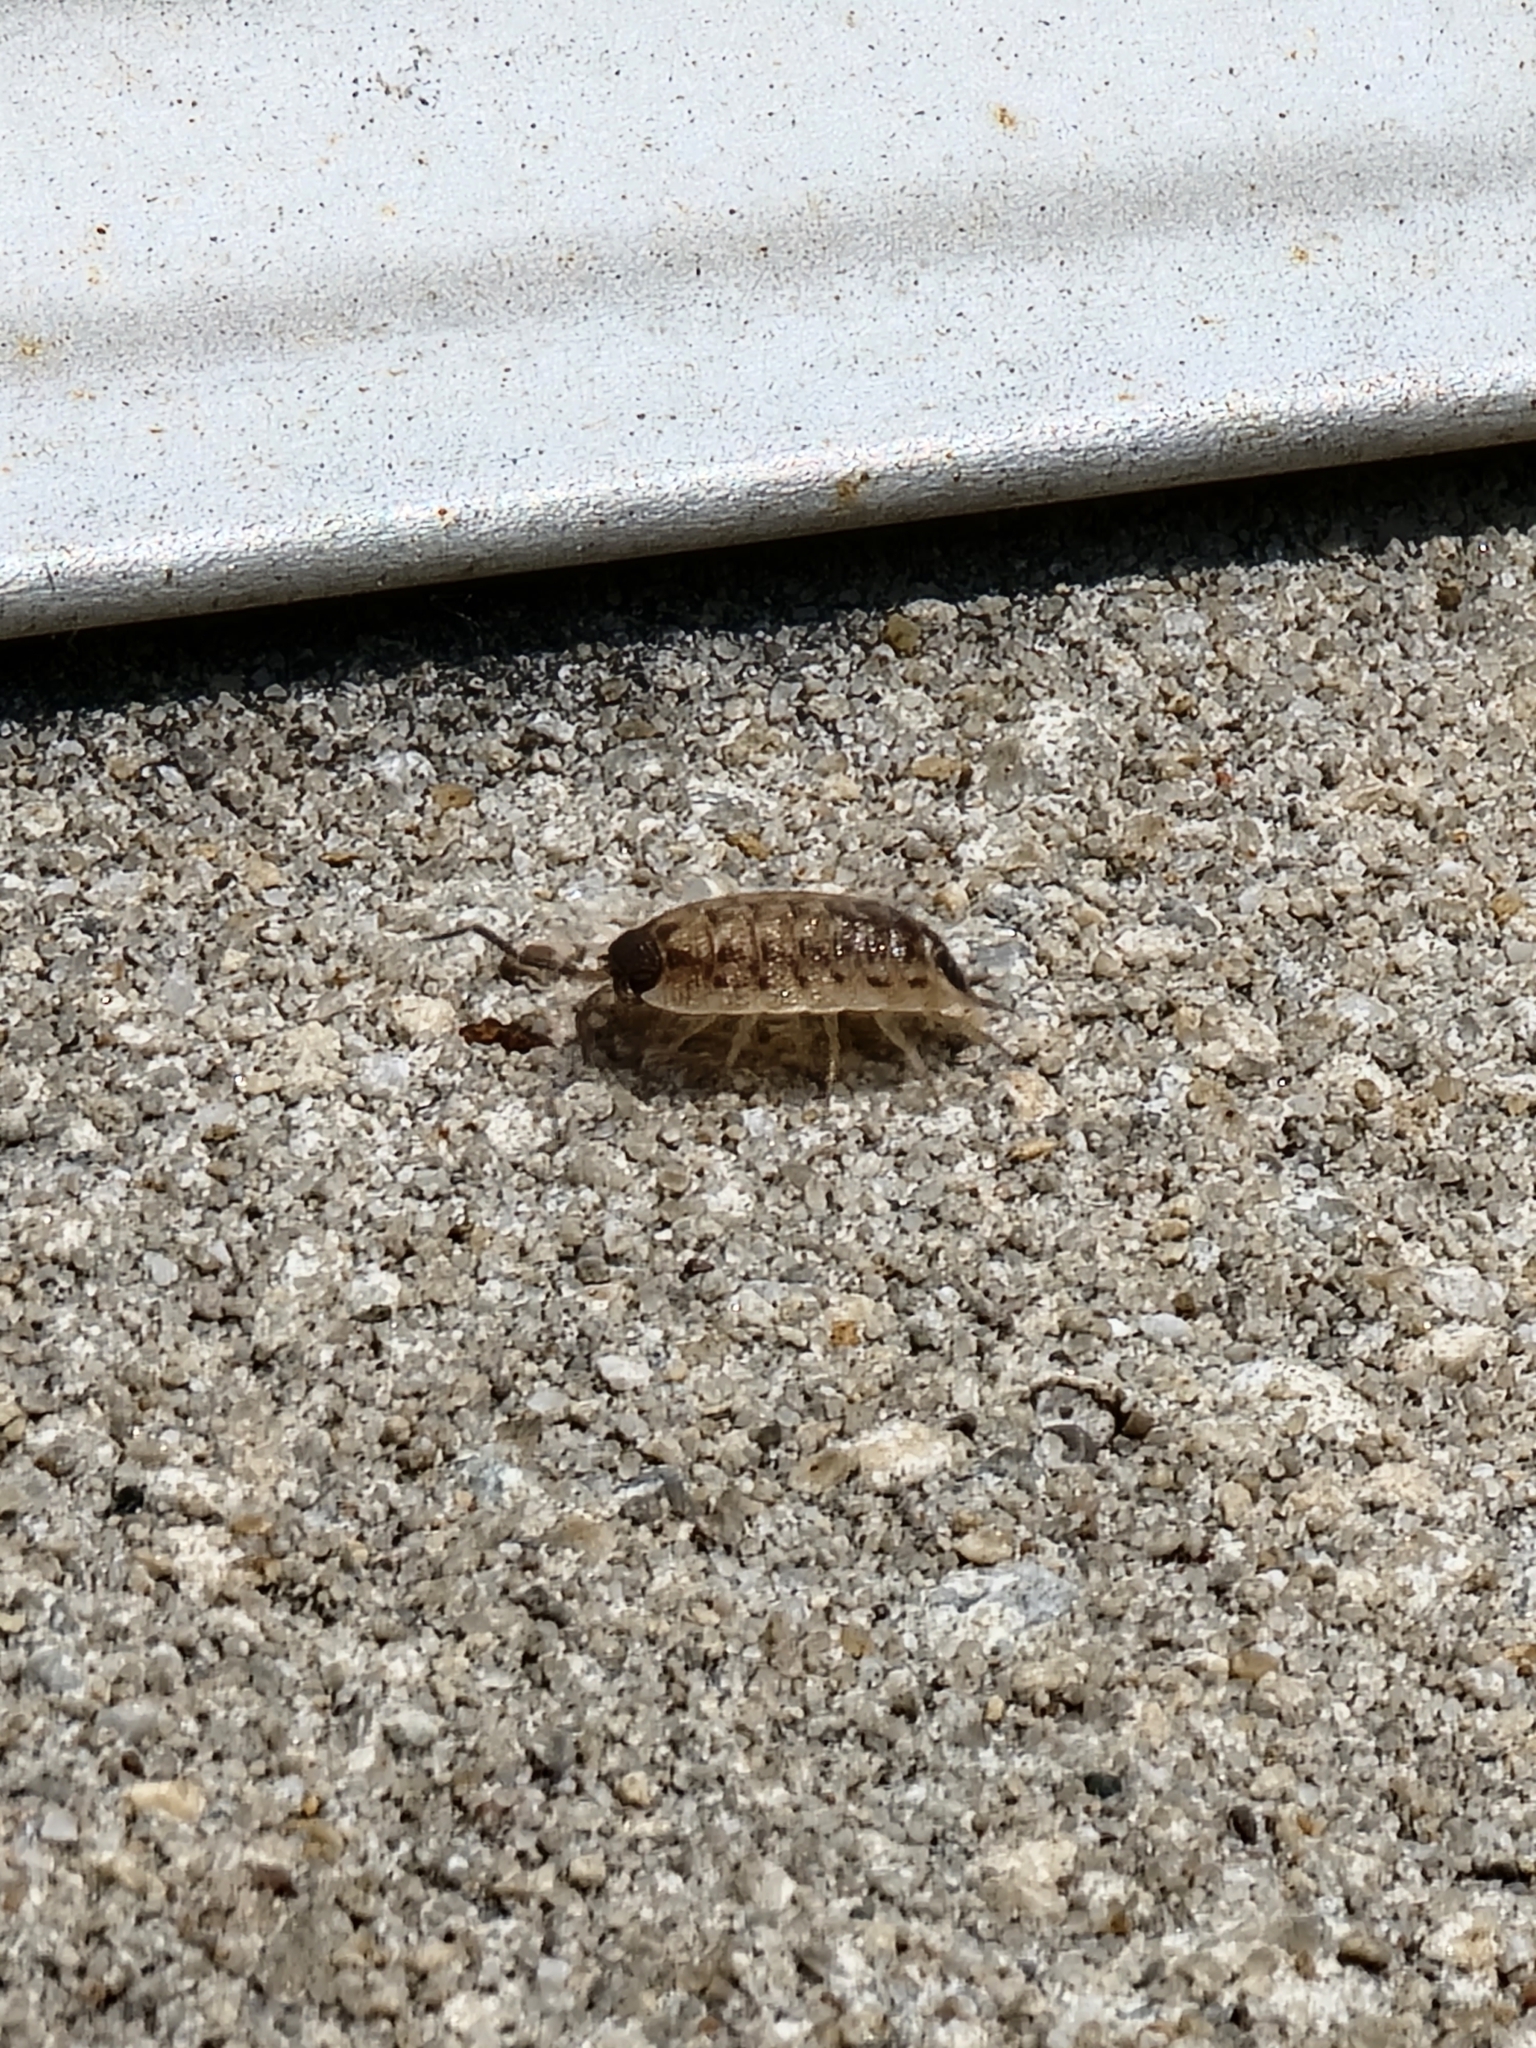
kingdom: Animalia
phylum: Arthropoda
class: Malacostraca
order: Isopoda
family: Porcellionidae
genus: Porcellio
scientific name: Porcellio spinicornis
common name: Painted woodlouse
